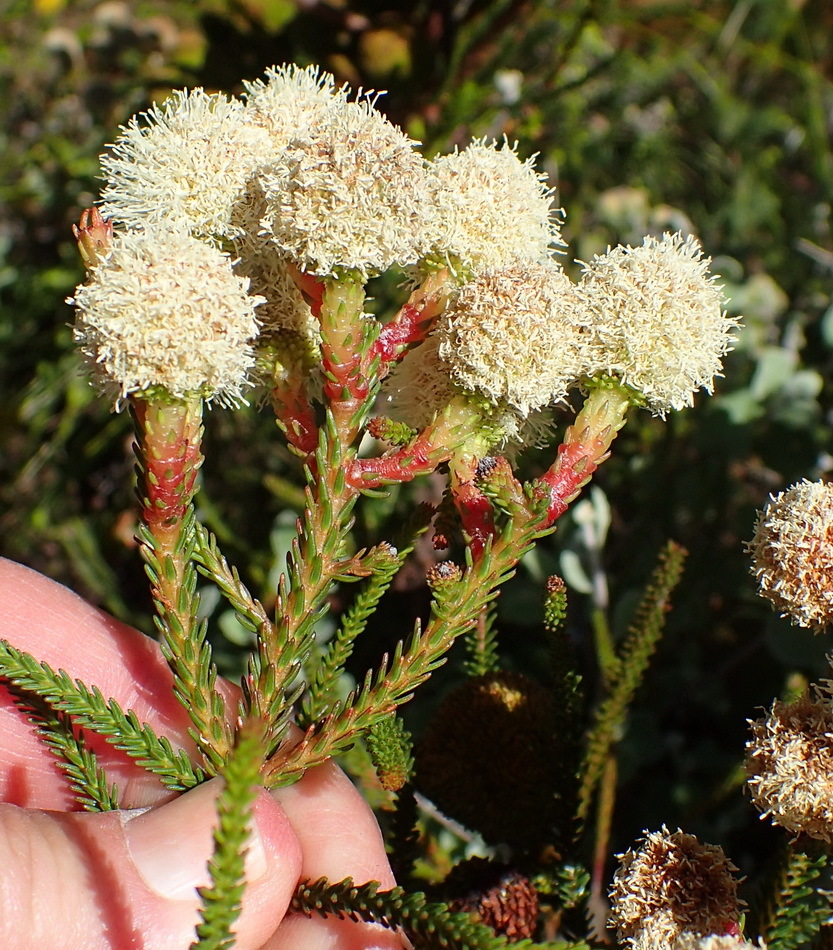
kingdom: Plantae
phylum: Tracheophyta
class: Magnoliopsida
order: Bruniales
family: Bruniaceae
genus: Berzelia
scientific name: Berzelia abrotanoides
